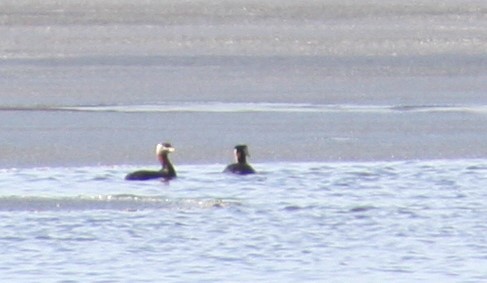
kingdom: Animalia
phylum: Chordata
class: Aves
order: Podicipediformes
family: Podicipedidae
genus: Podiceps
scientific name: Podiceps grisegena
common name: Red-necked grebe
